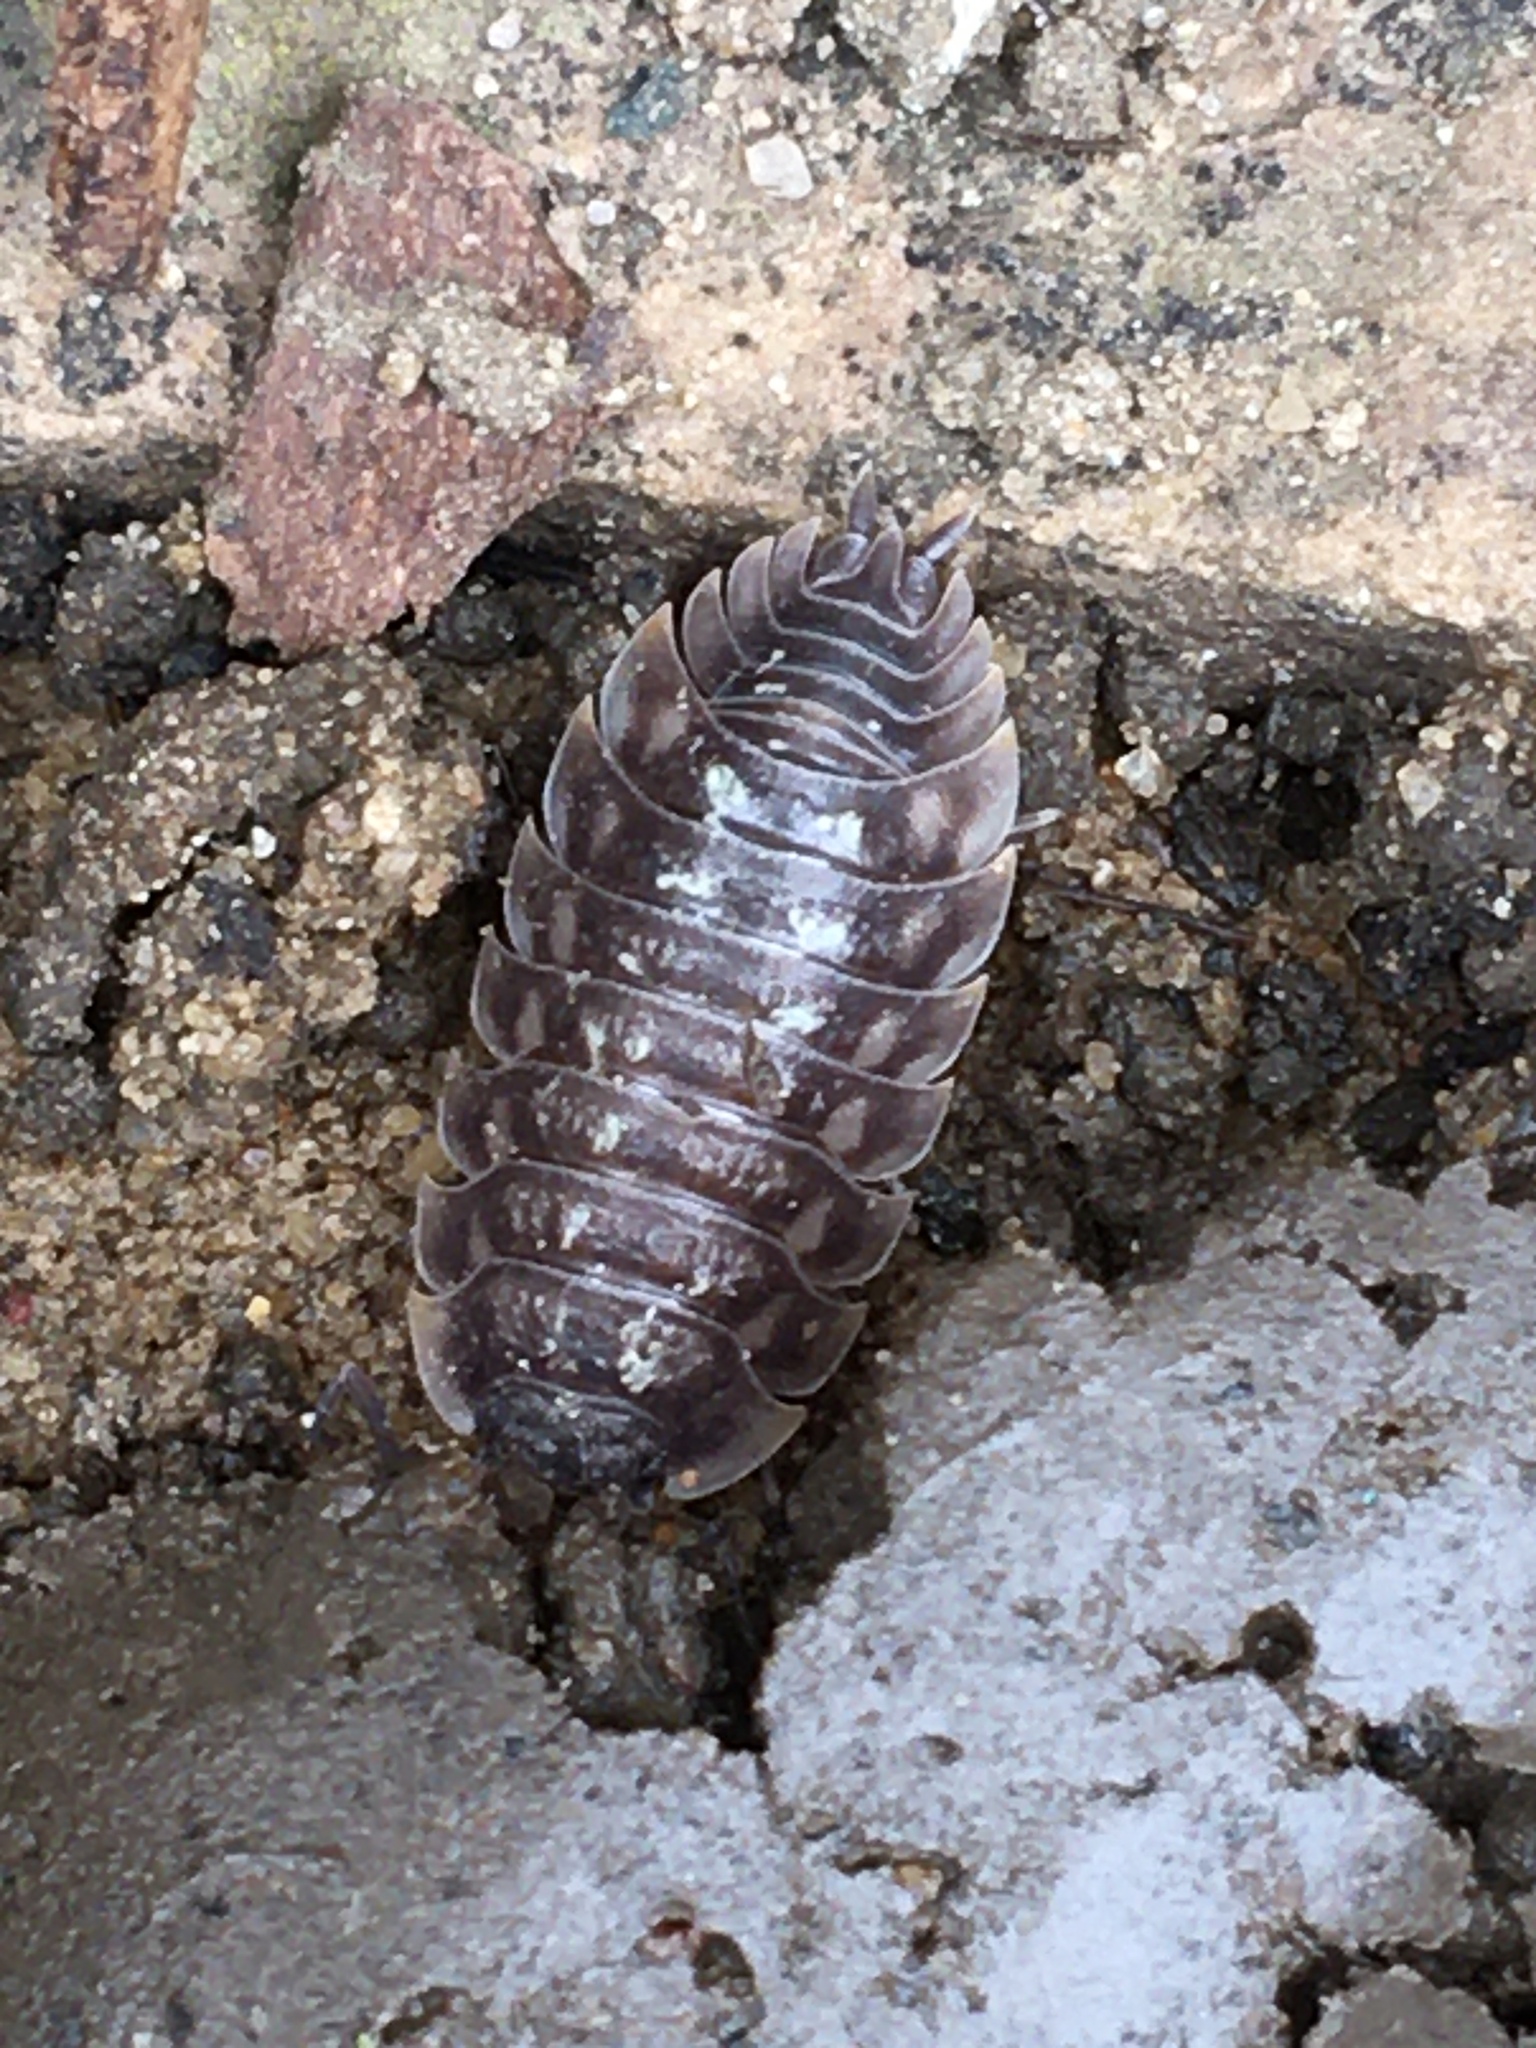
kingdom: Animalia
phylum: Arthropoda
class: Malacostraca
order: Isopoda
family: Oniscidae
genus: Oniscus
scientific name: Oniscus asellus
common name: Common shiny woodlouse
